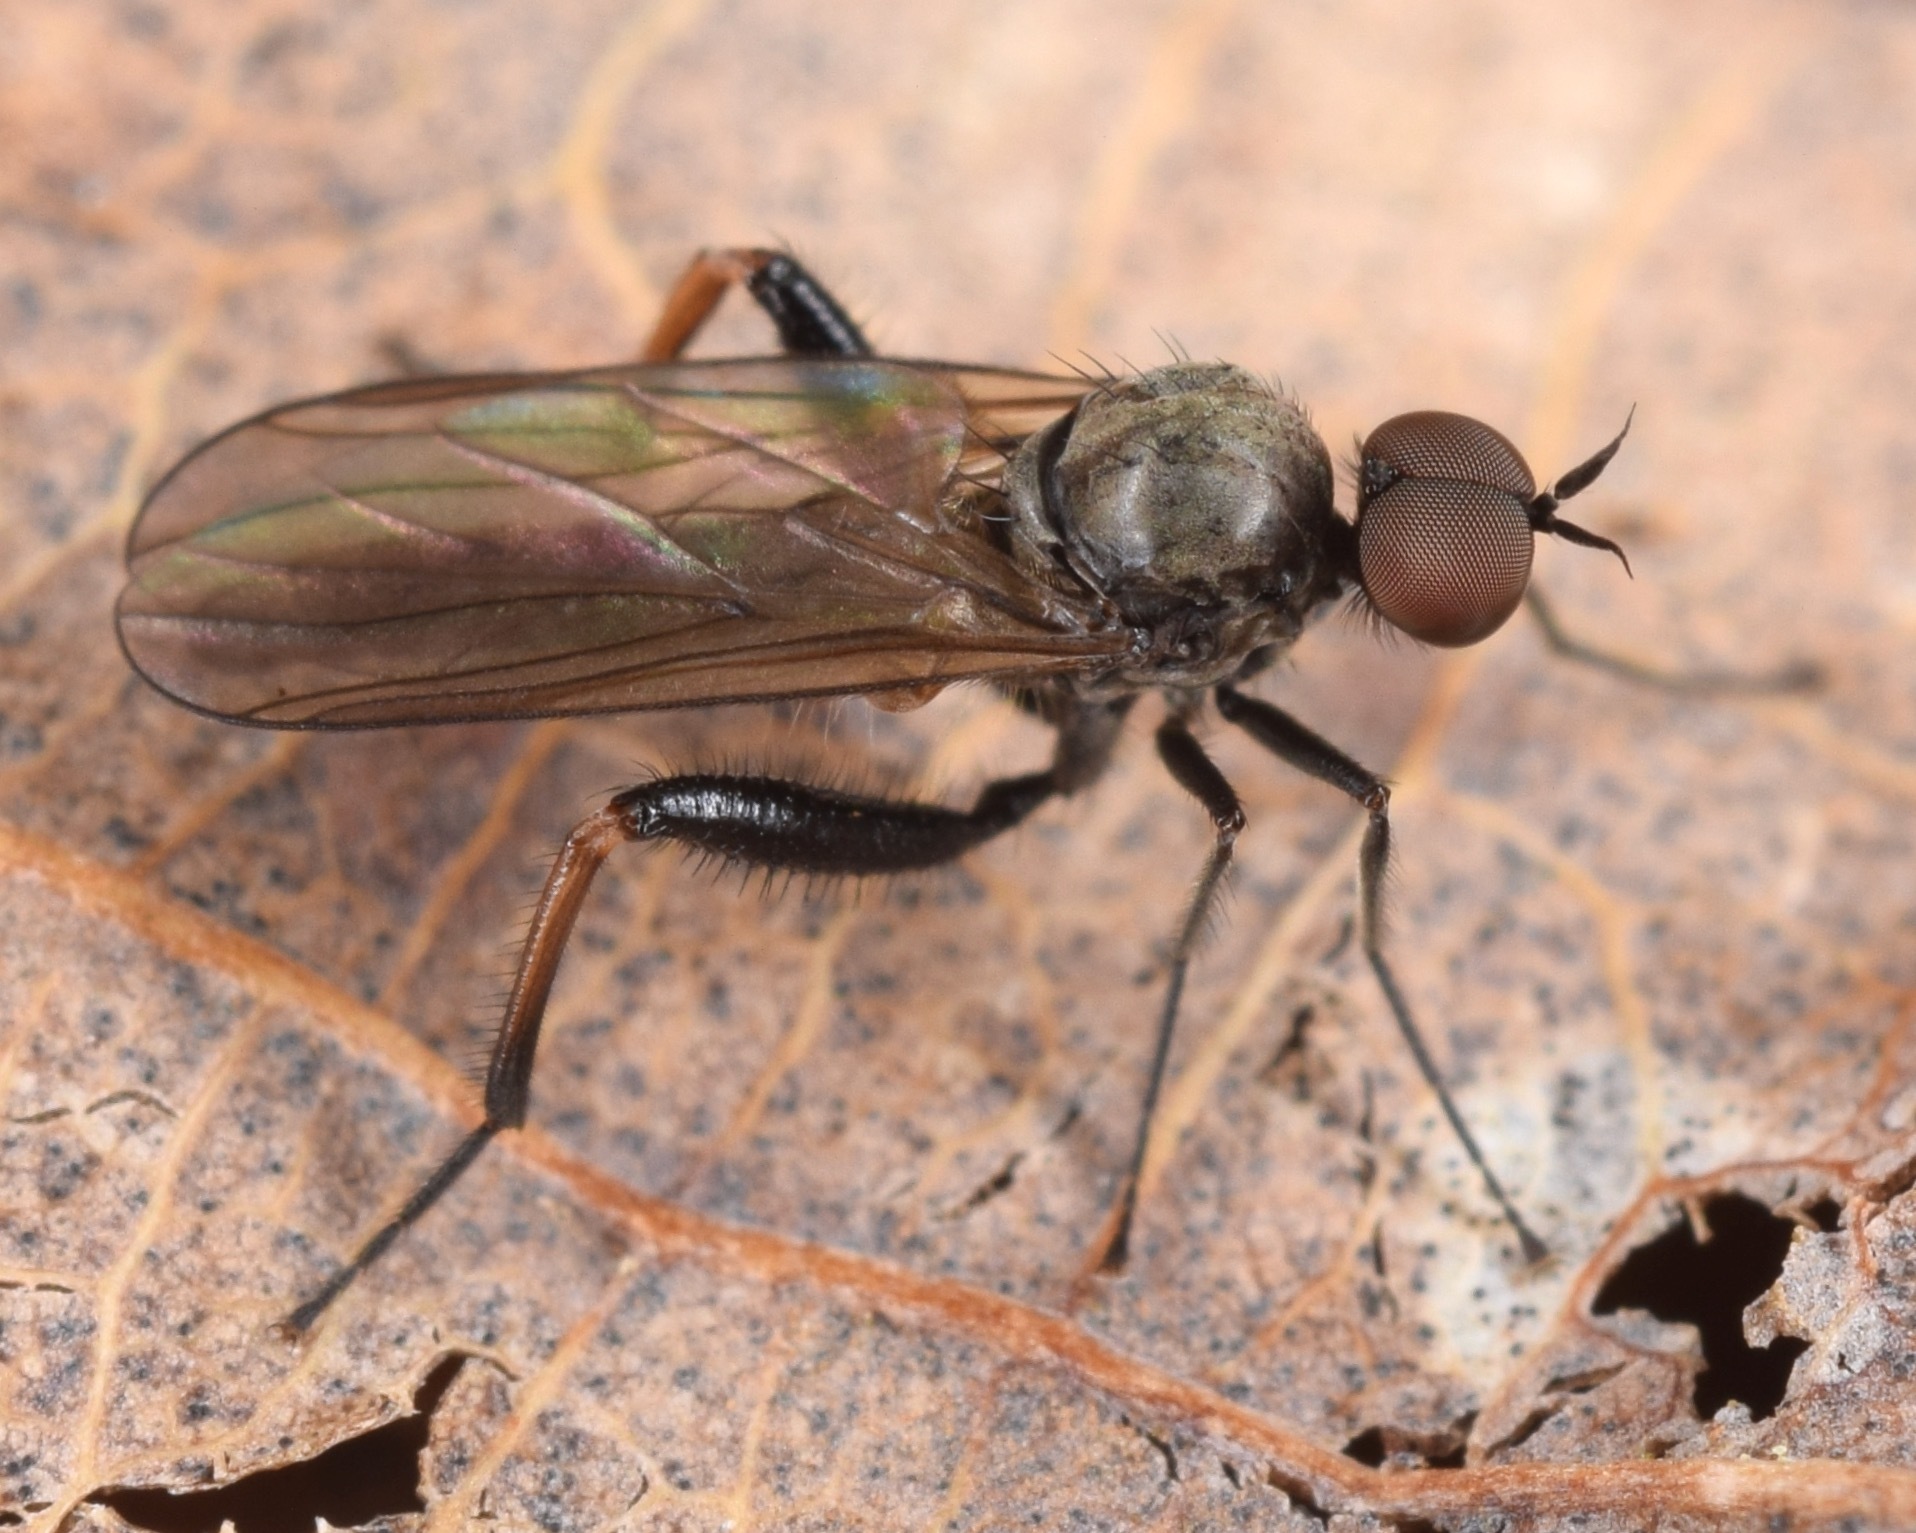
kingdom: Animalia
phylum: Arthropoda
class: Insecta
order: Diptera
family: Hybotidae
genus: Hoplocyrtoma
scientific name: Hoplocyrtoma femorata
